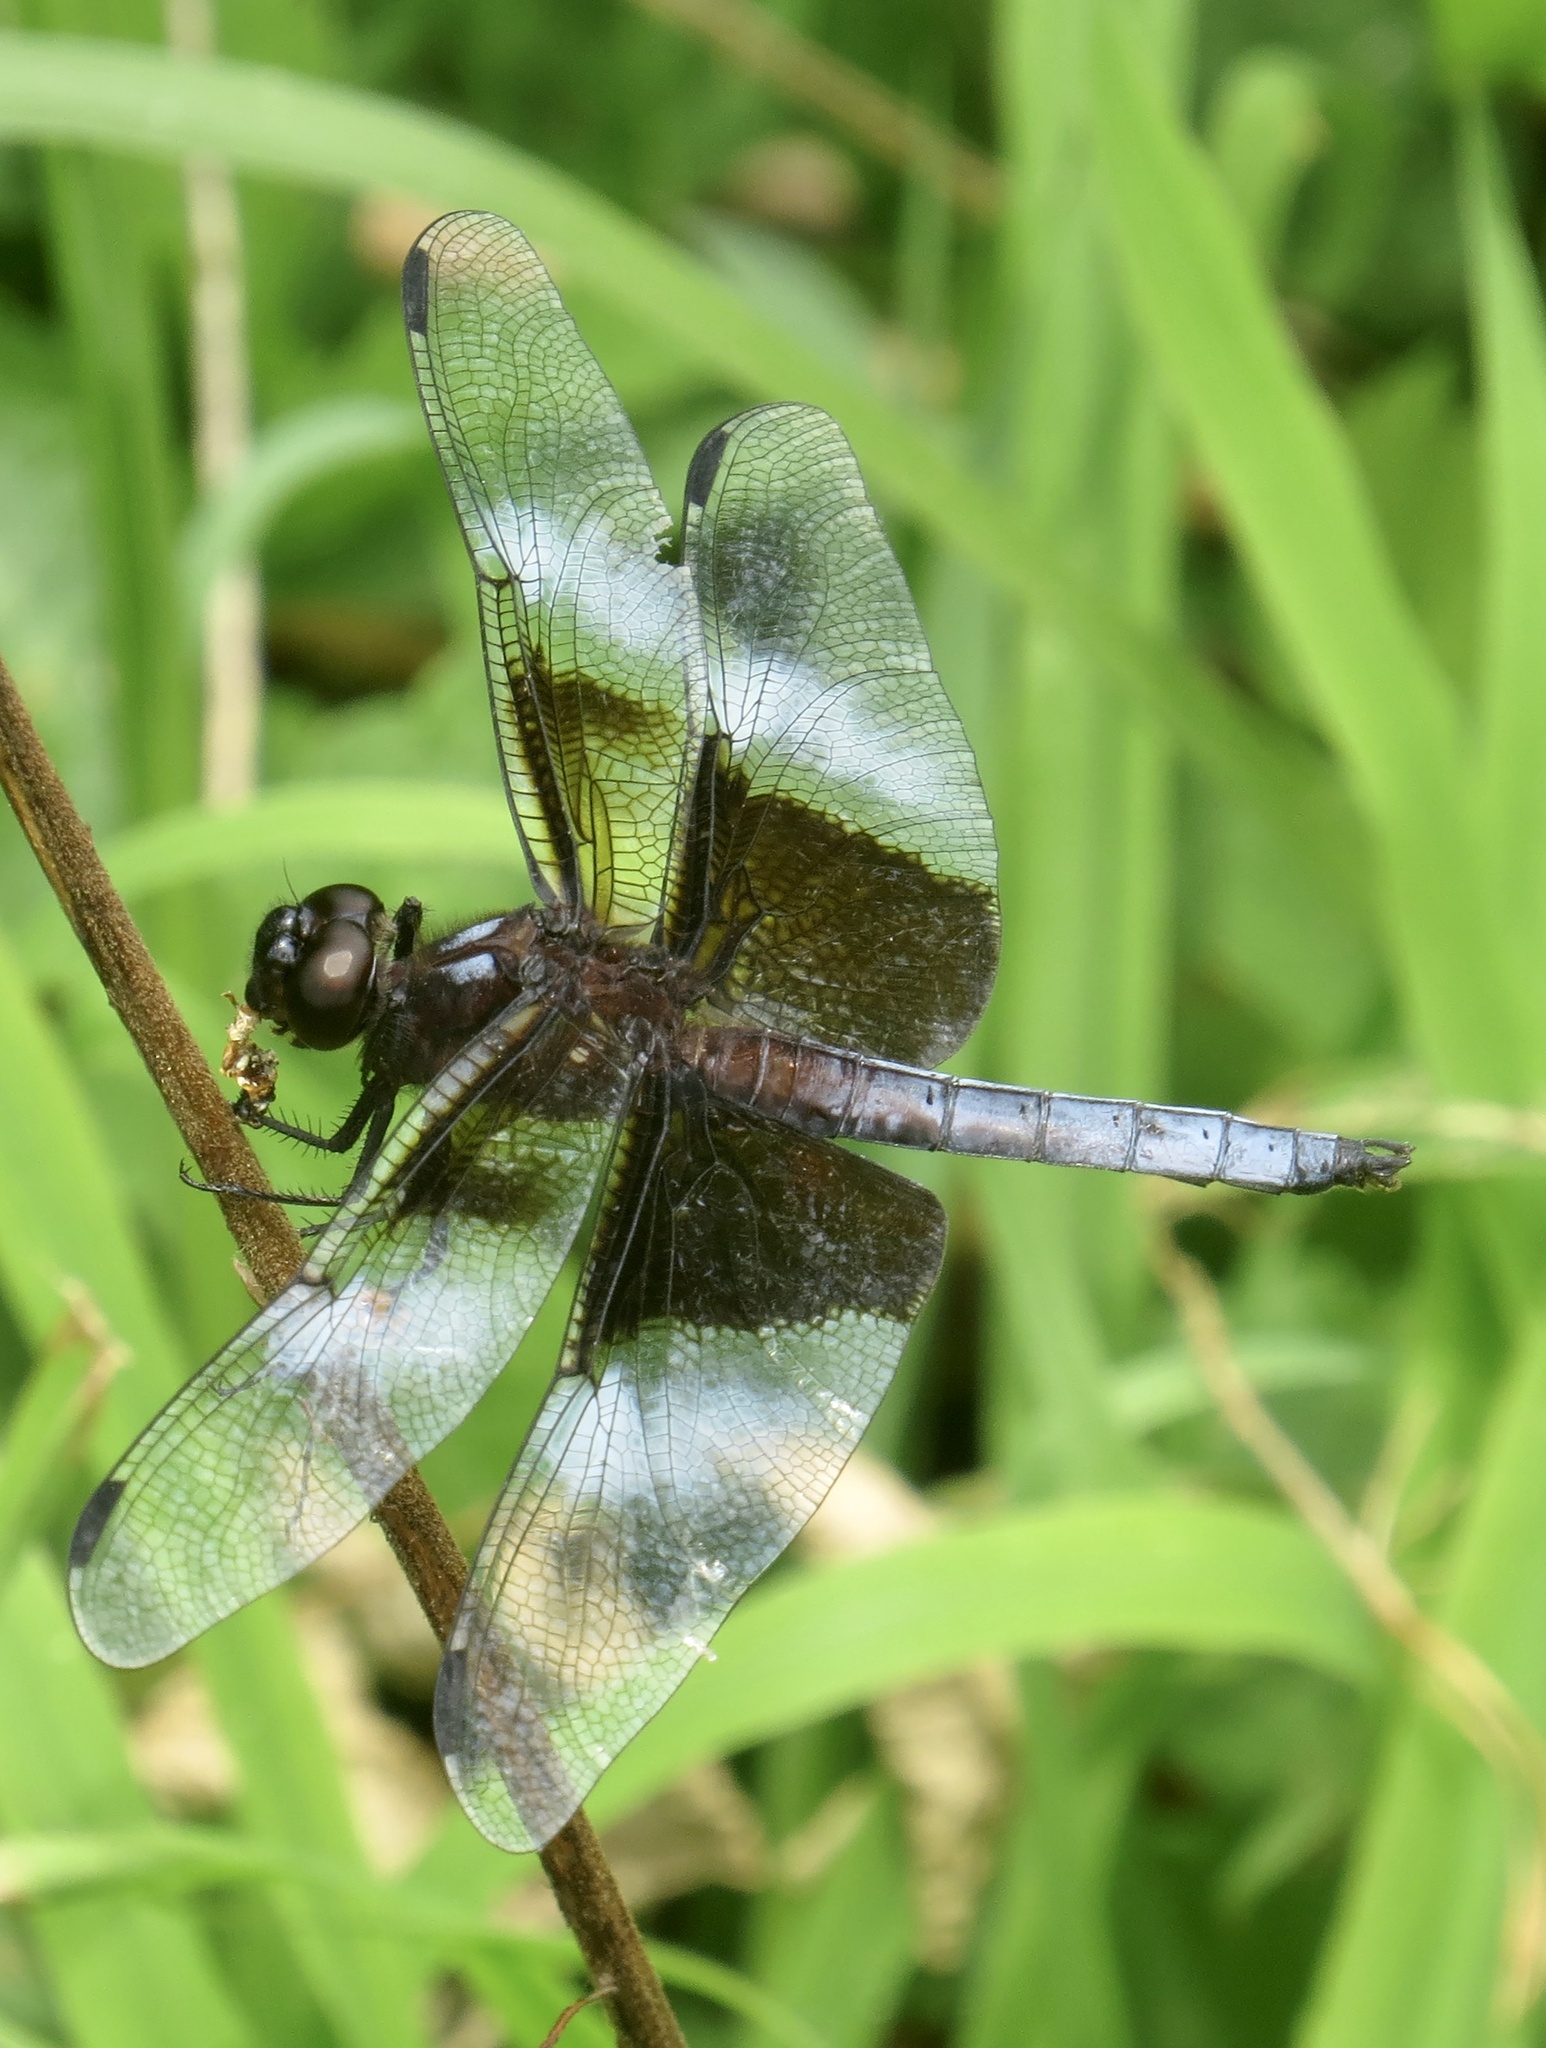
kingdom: Animalia
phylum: Arthropoda
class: Insecta
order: Odonata
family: Libellulidae
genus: Libellula
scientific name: Libellula luctuosa
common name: Widow skimmer
